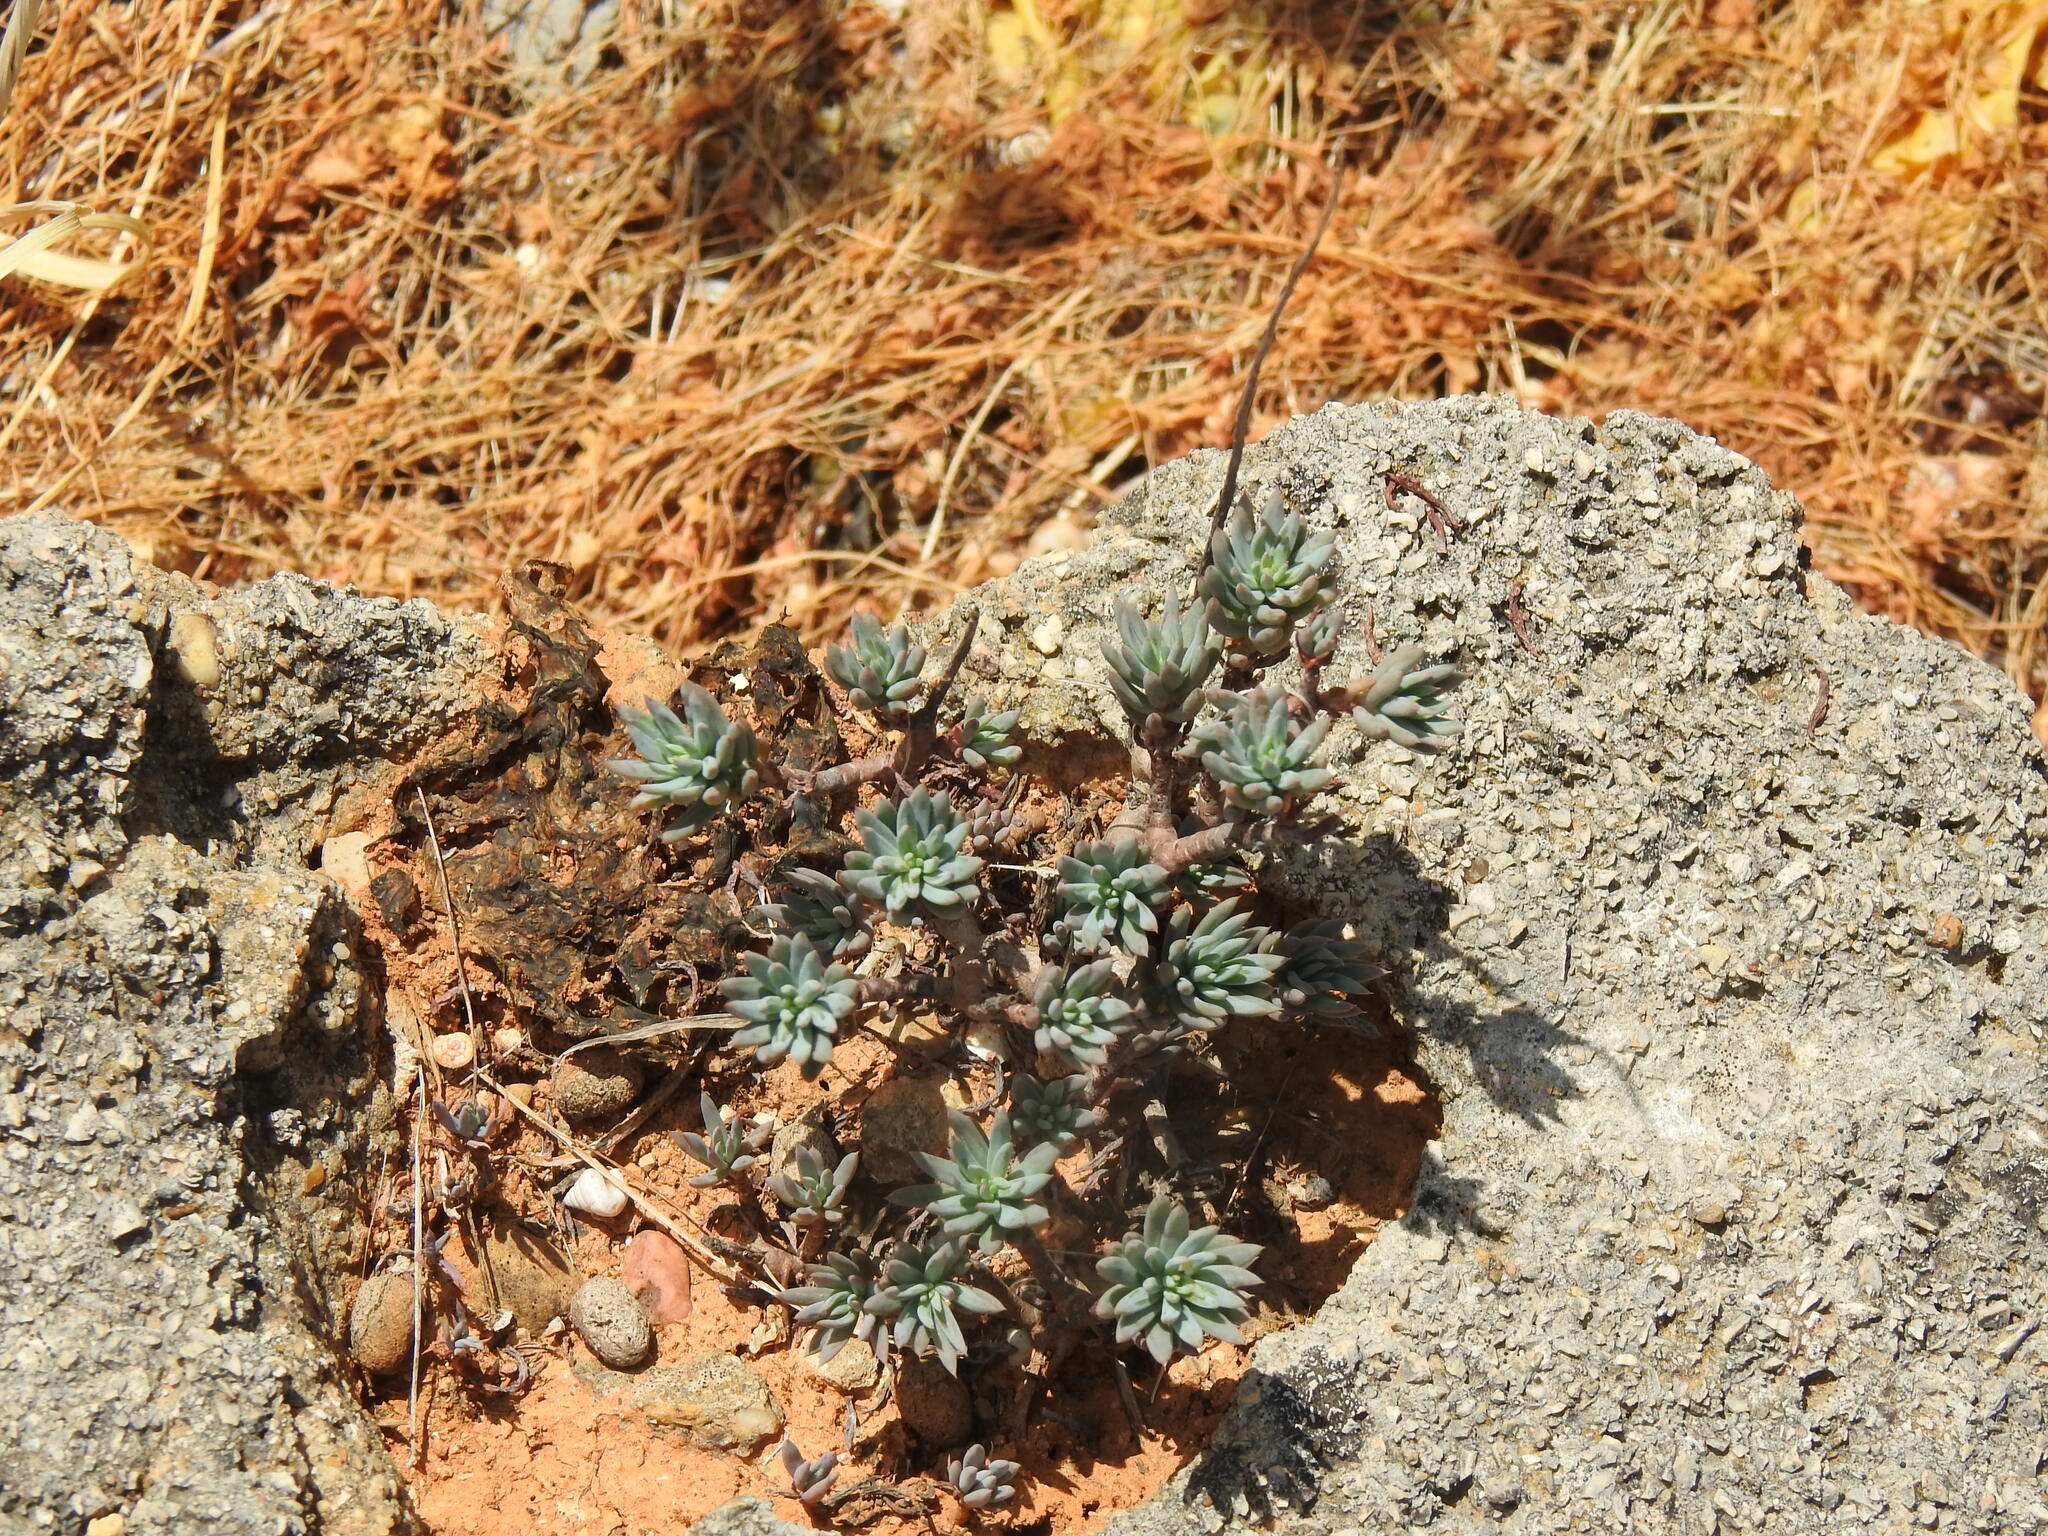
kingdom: Plantae
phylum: Tracheophyta
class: Magnoliopsida
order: Saxifragales
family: Crassulaceae
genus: Petrosedum
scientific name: Petrosedum sediforme
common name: Pale stonecrop
